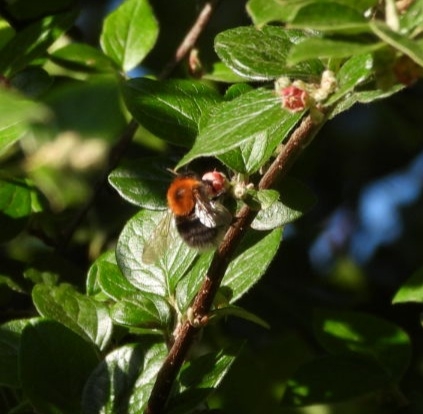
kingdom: Animalia
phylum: Arthropoda
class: Insecta
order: Hymenoptera
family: Apidae
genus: Bombus
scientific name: Bombus hypnorum
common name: New garden bumblebee
